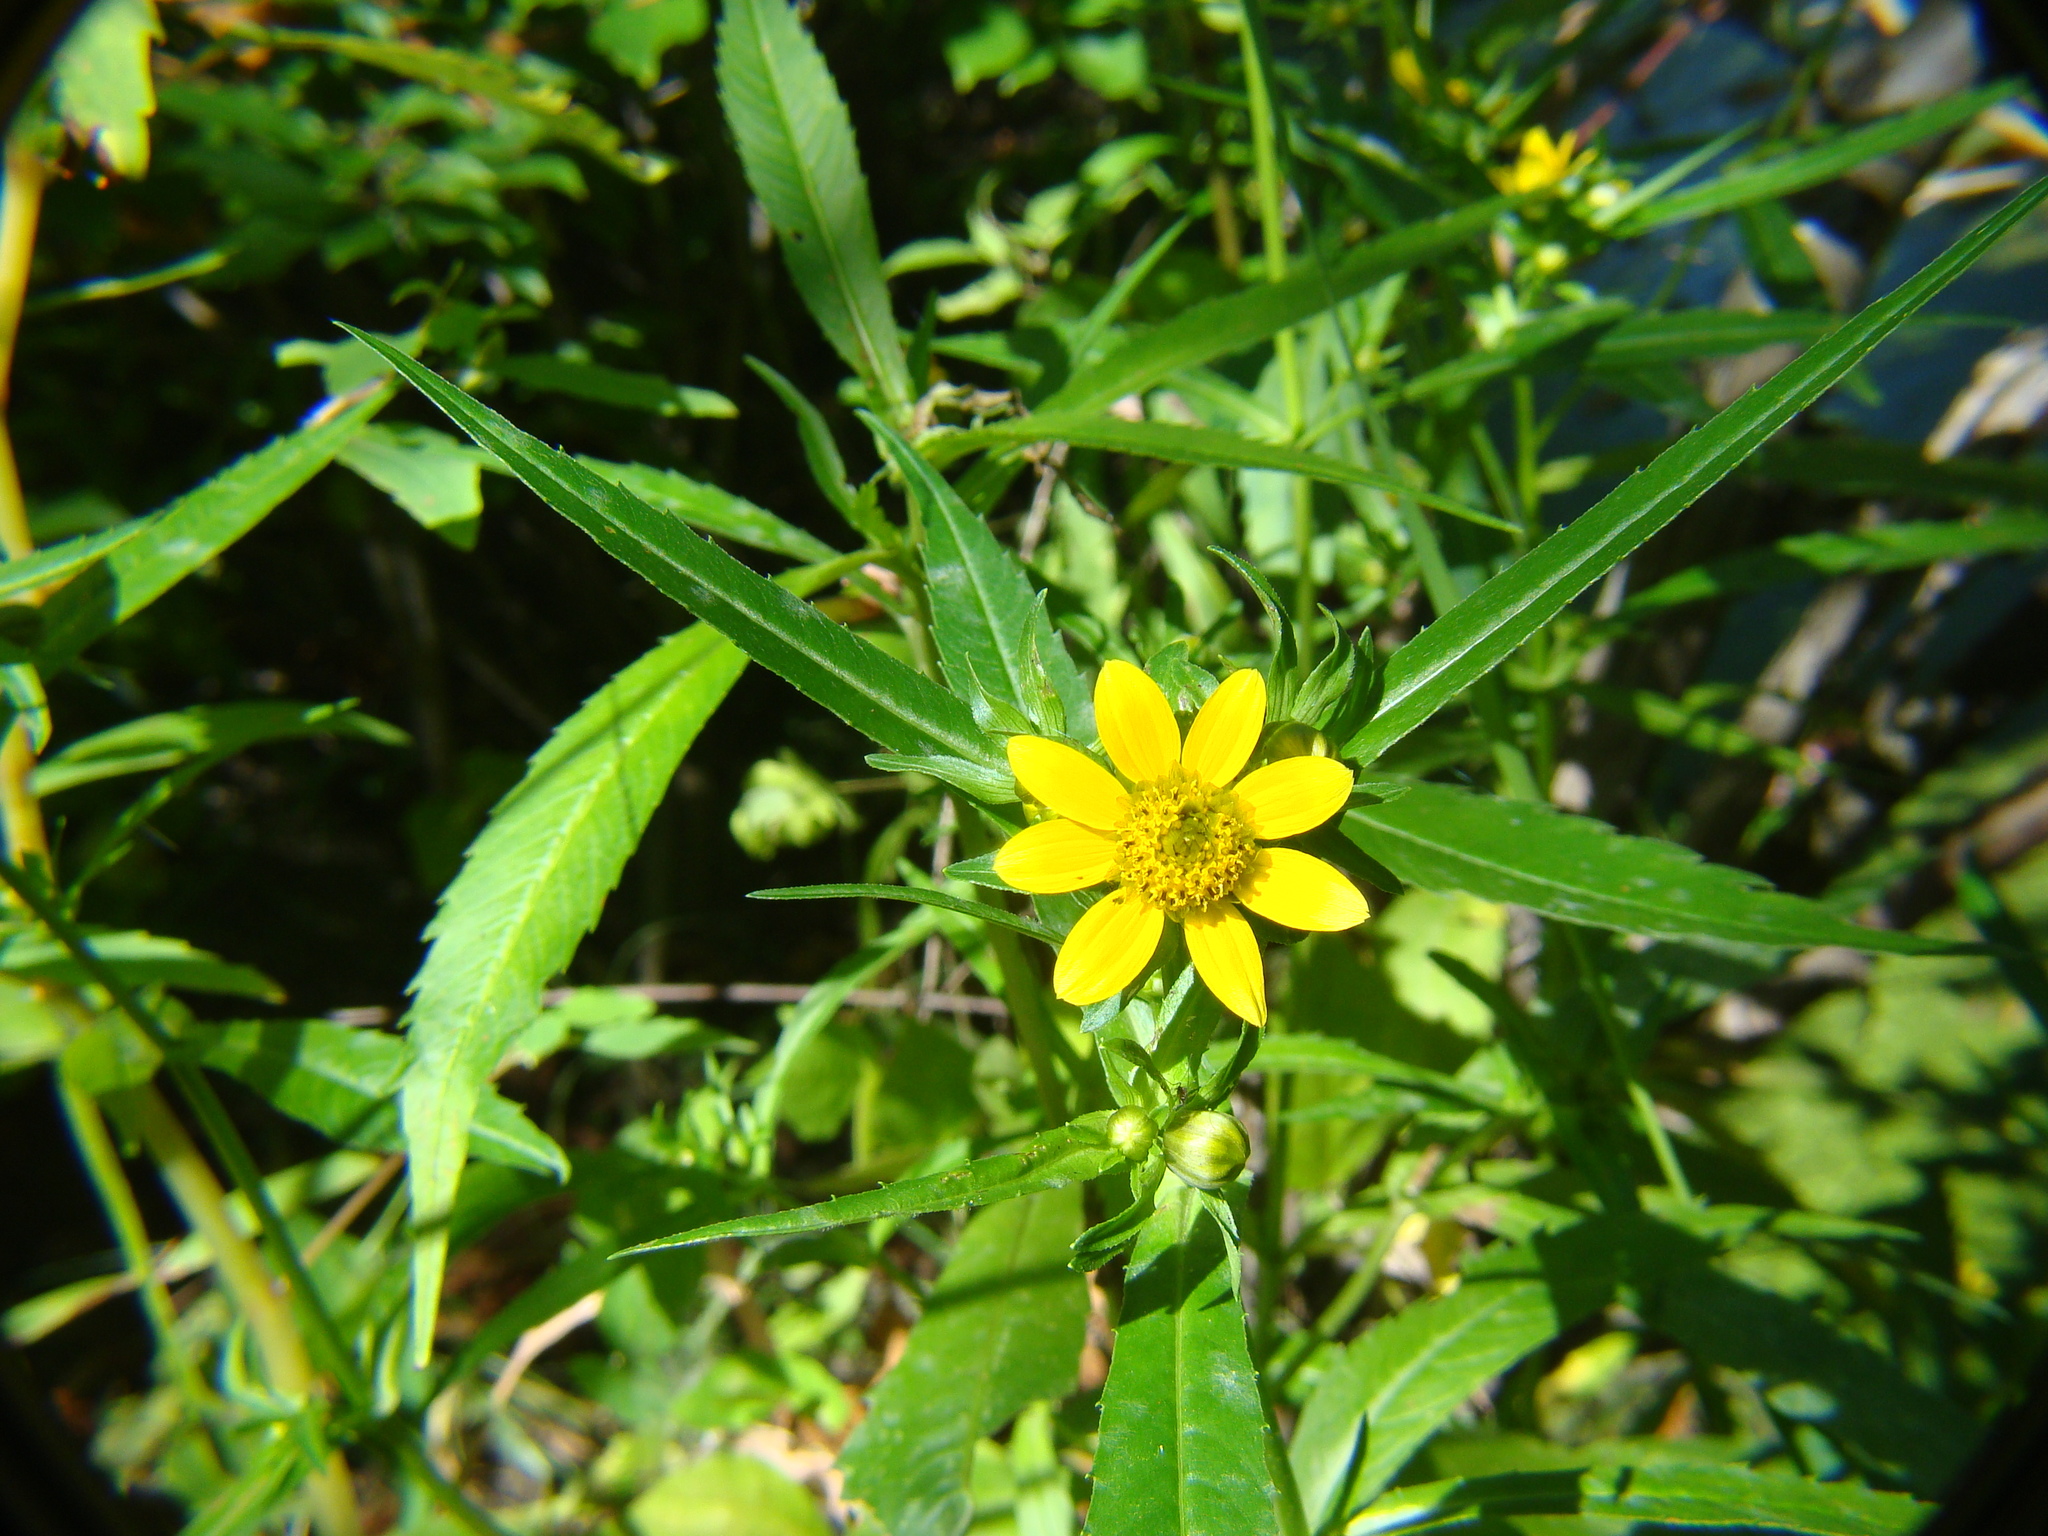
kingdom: Plantae
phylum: Tracheophyta
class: Magnoliopsida
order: Asterales
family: Asteraceae
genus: Bidens
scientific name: Bidens laevis
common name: Larger bur-marigold
